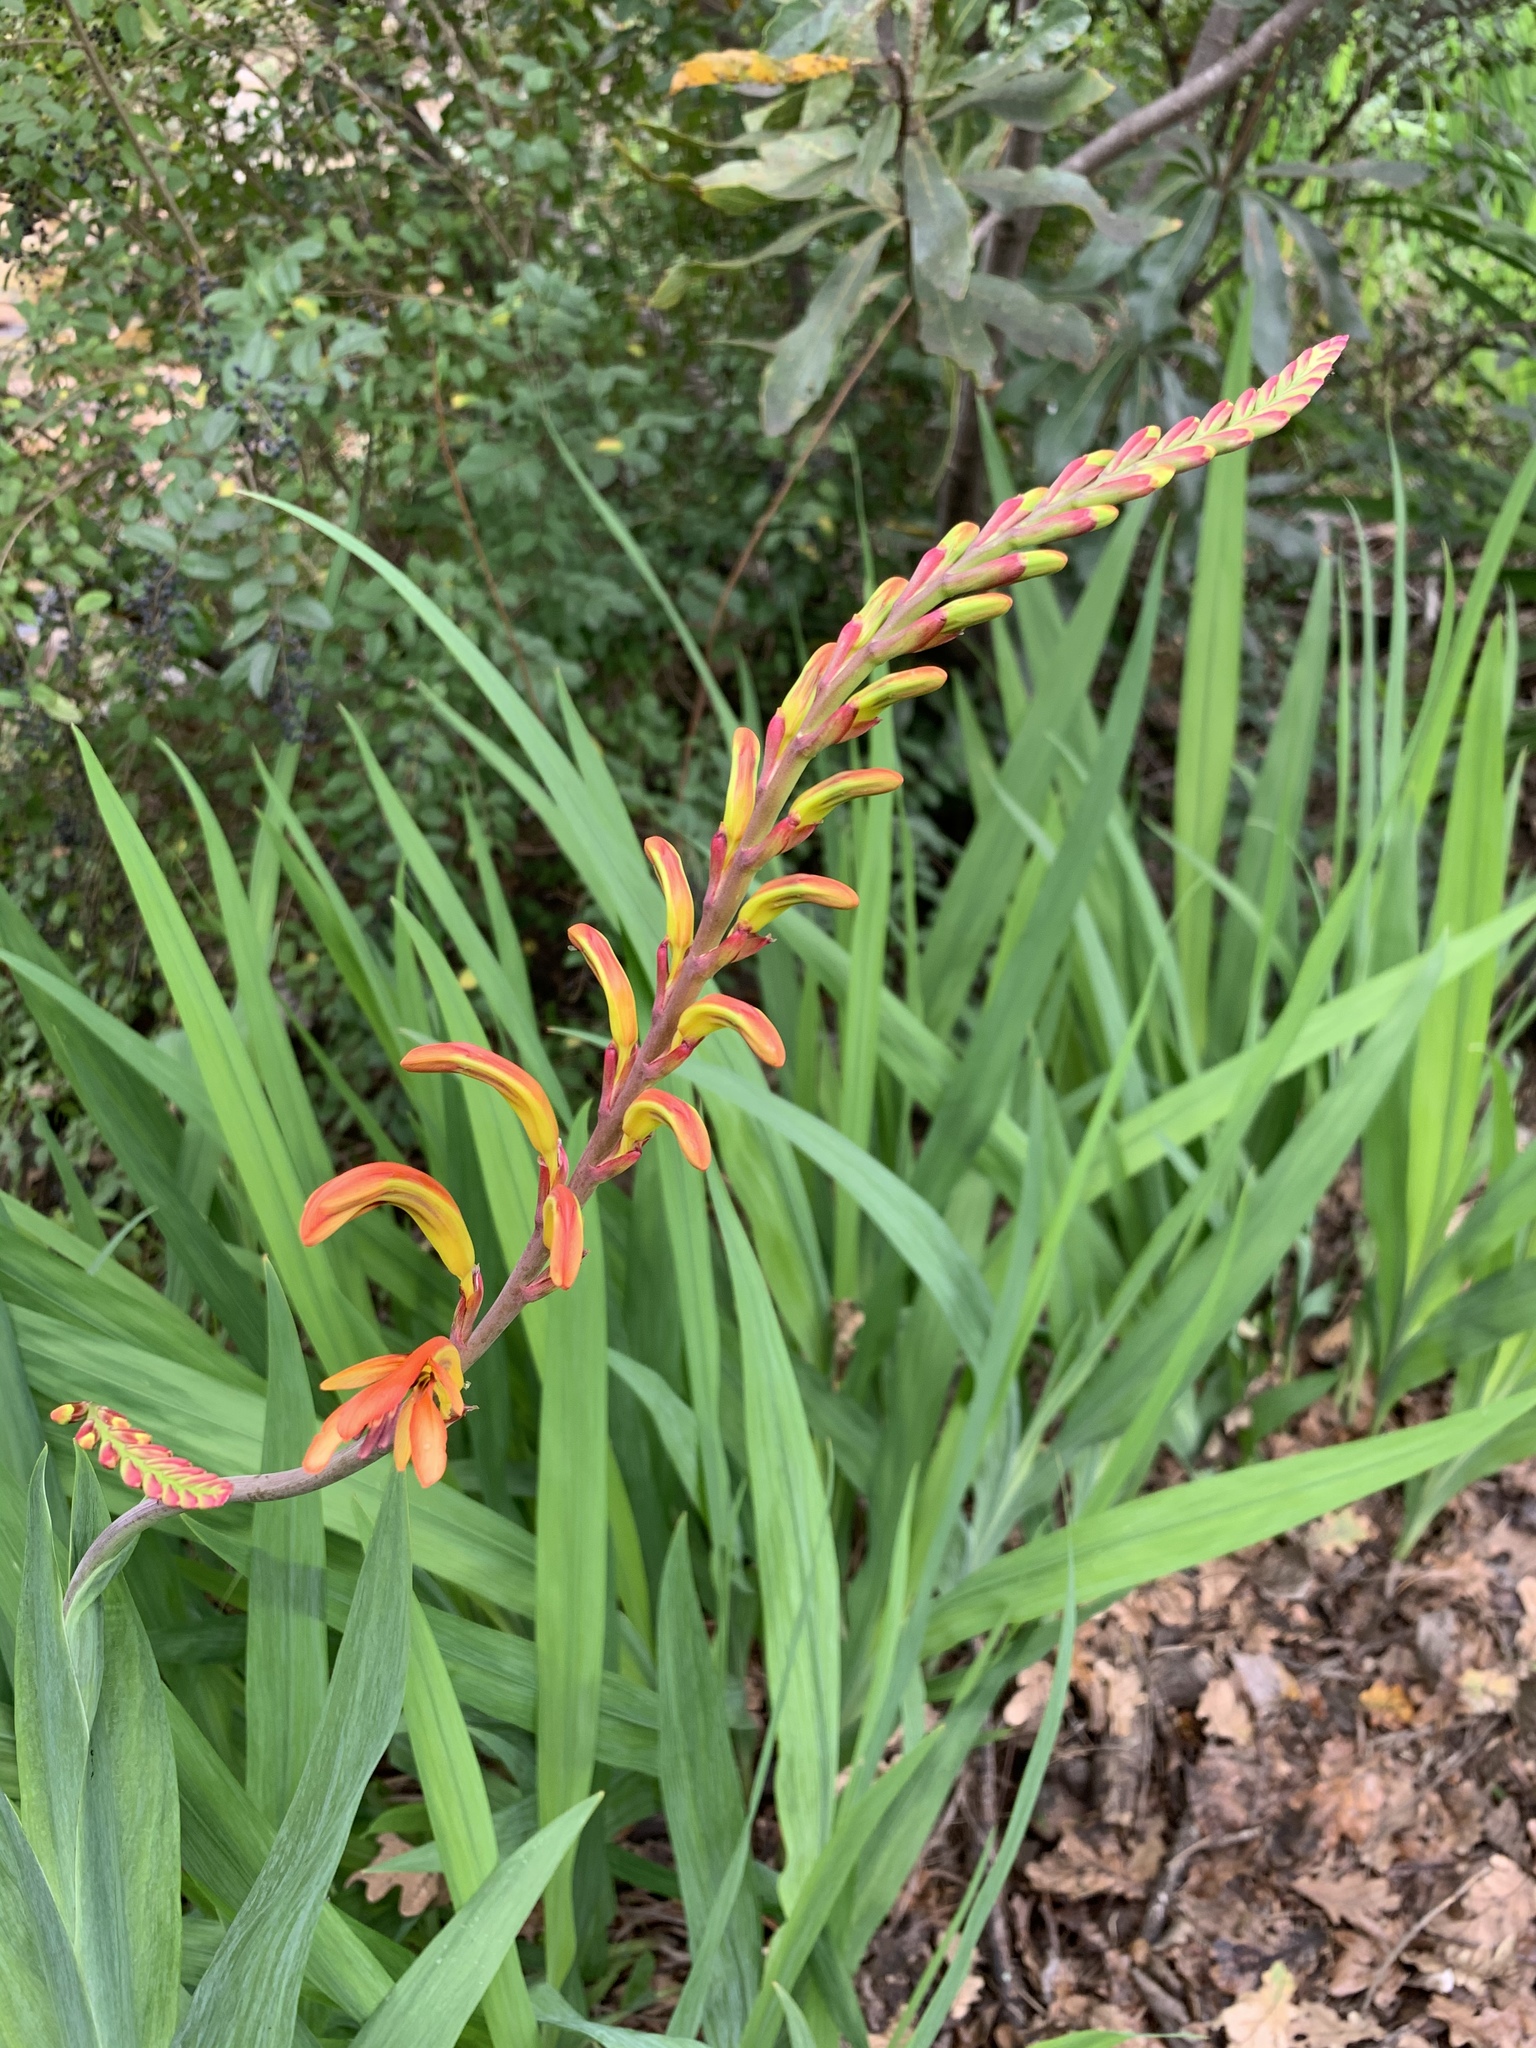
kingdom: Plantae
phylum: Tracheophyta
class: Liliopsida
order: Asparagales
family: Iridaceae
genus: Chasmanthe
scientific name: Chasmanthe floribunda
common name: African cornflag
